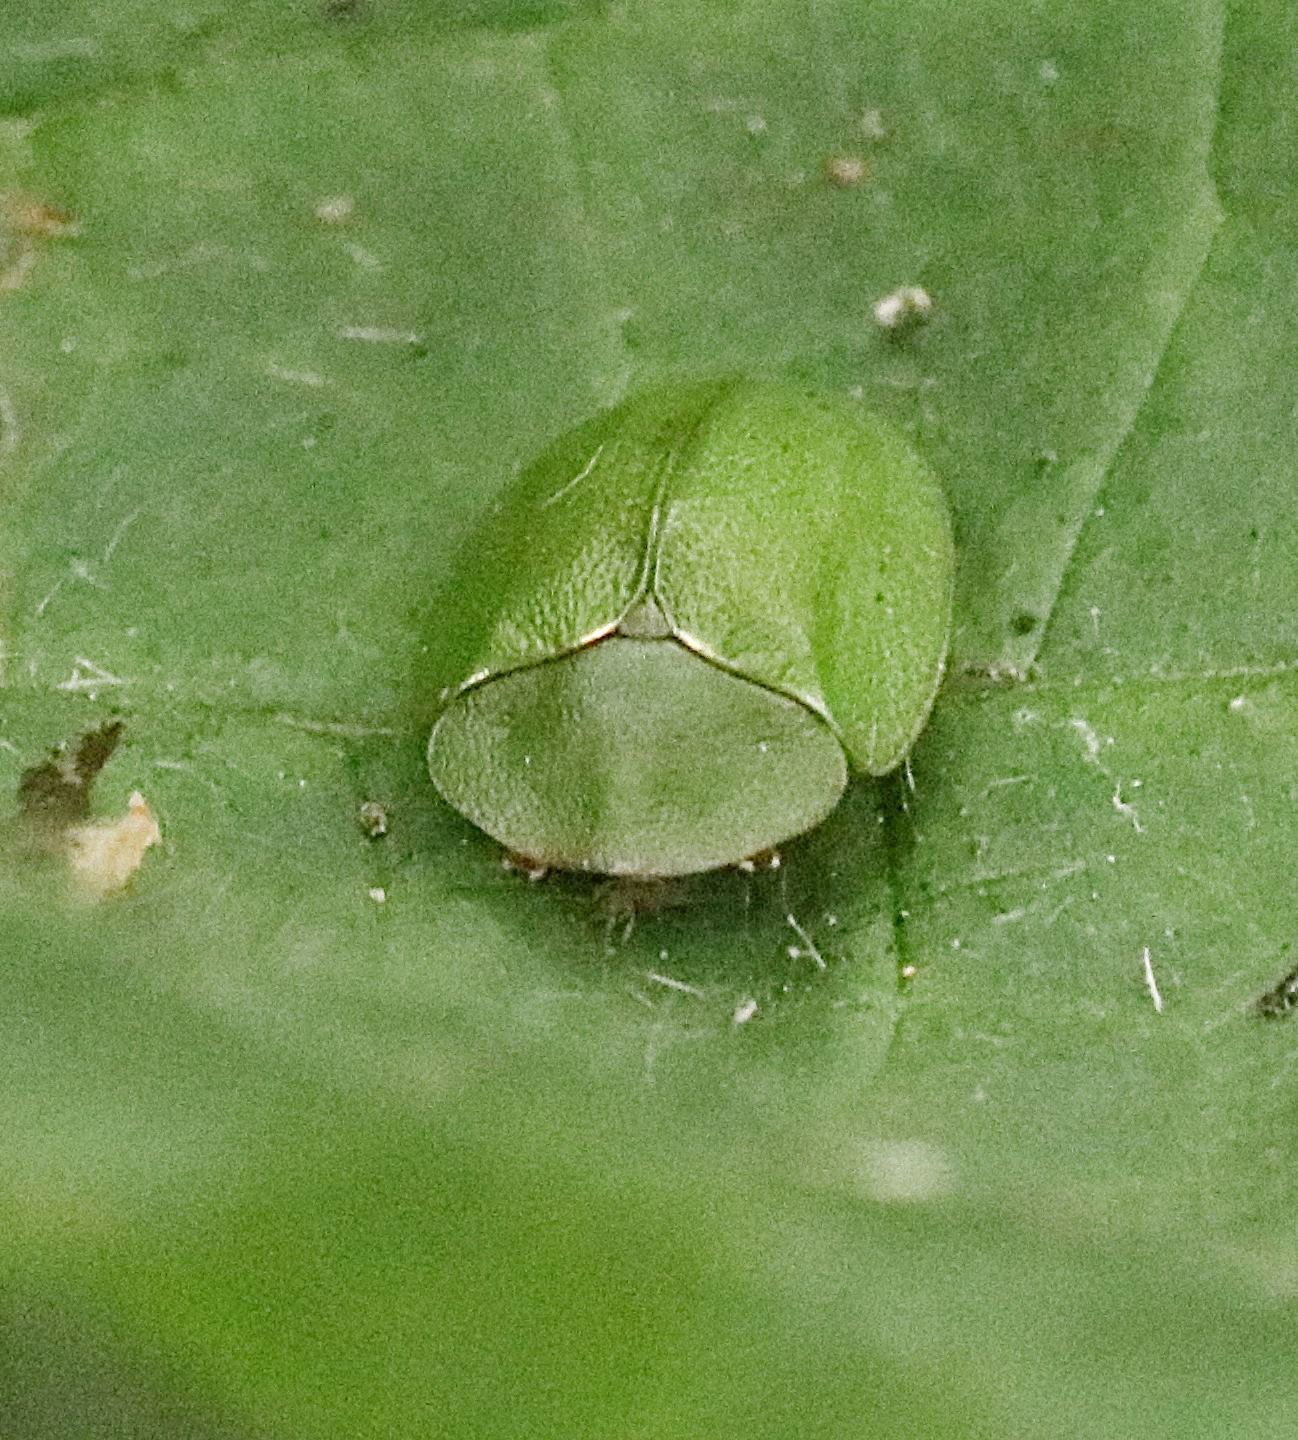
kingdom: Animalia
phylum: Arthropoda
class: Insecta
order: Coleoptera
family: Chrysomelidae
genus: Cassida
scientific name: Cassida viridis
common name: Green tortoise beetle
